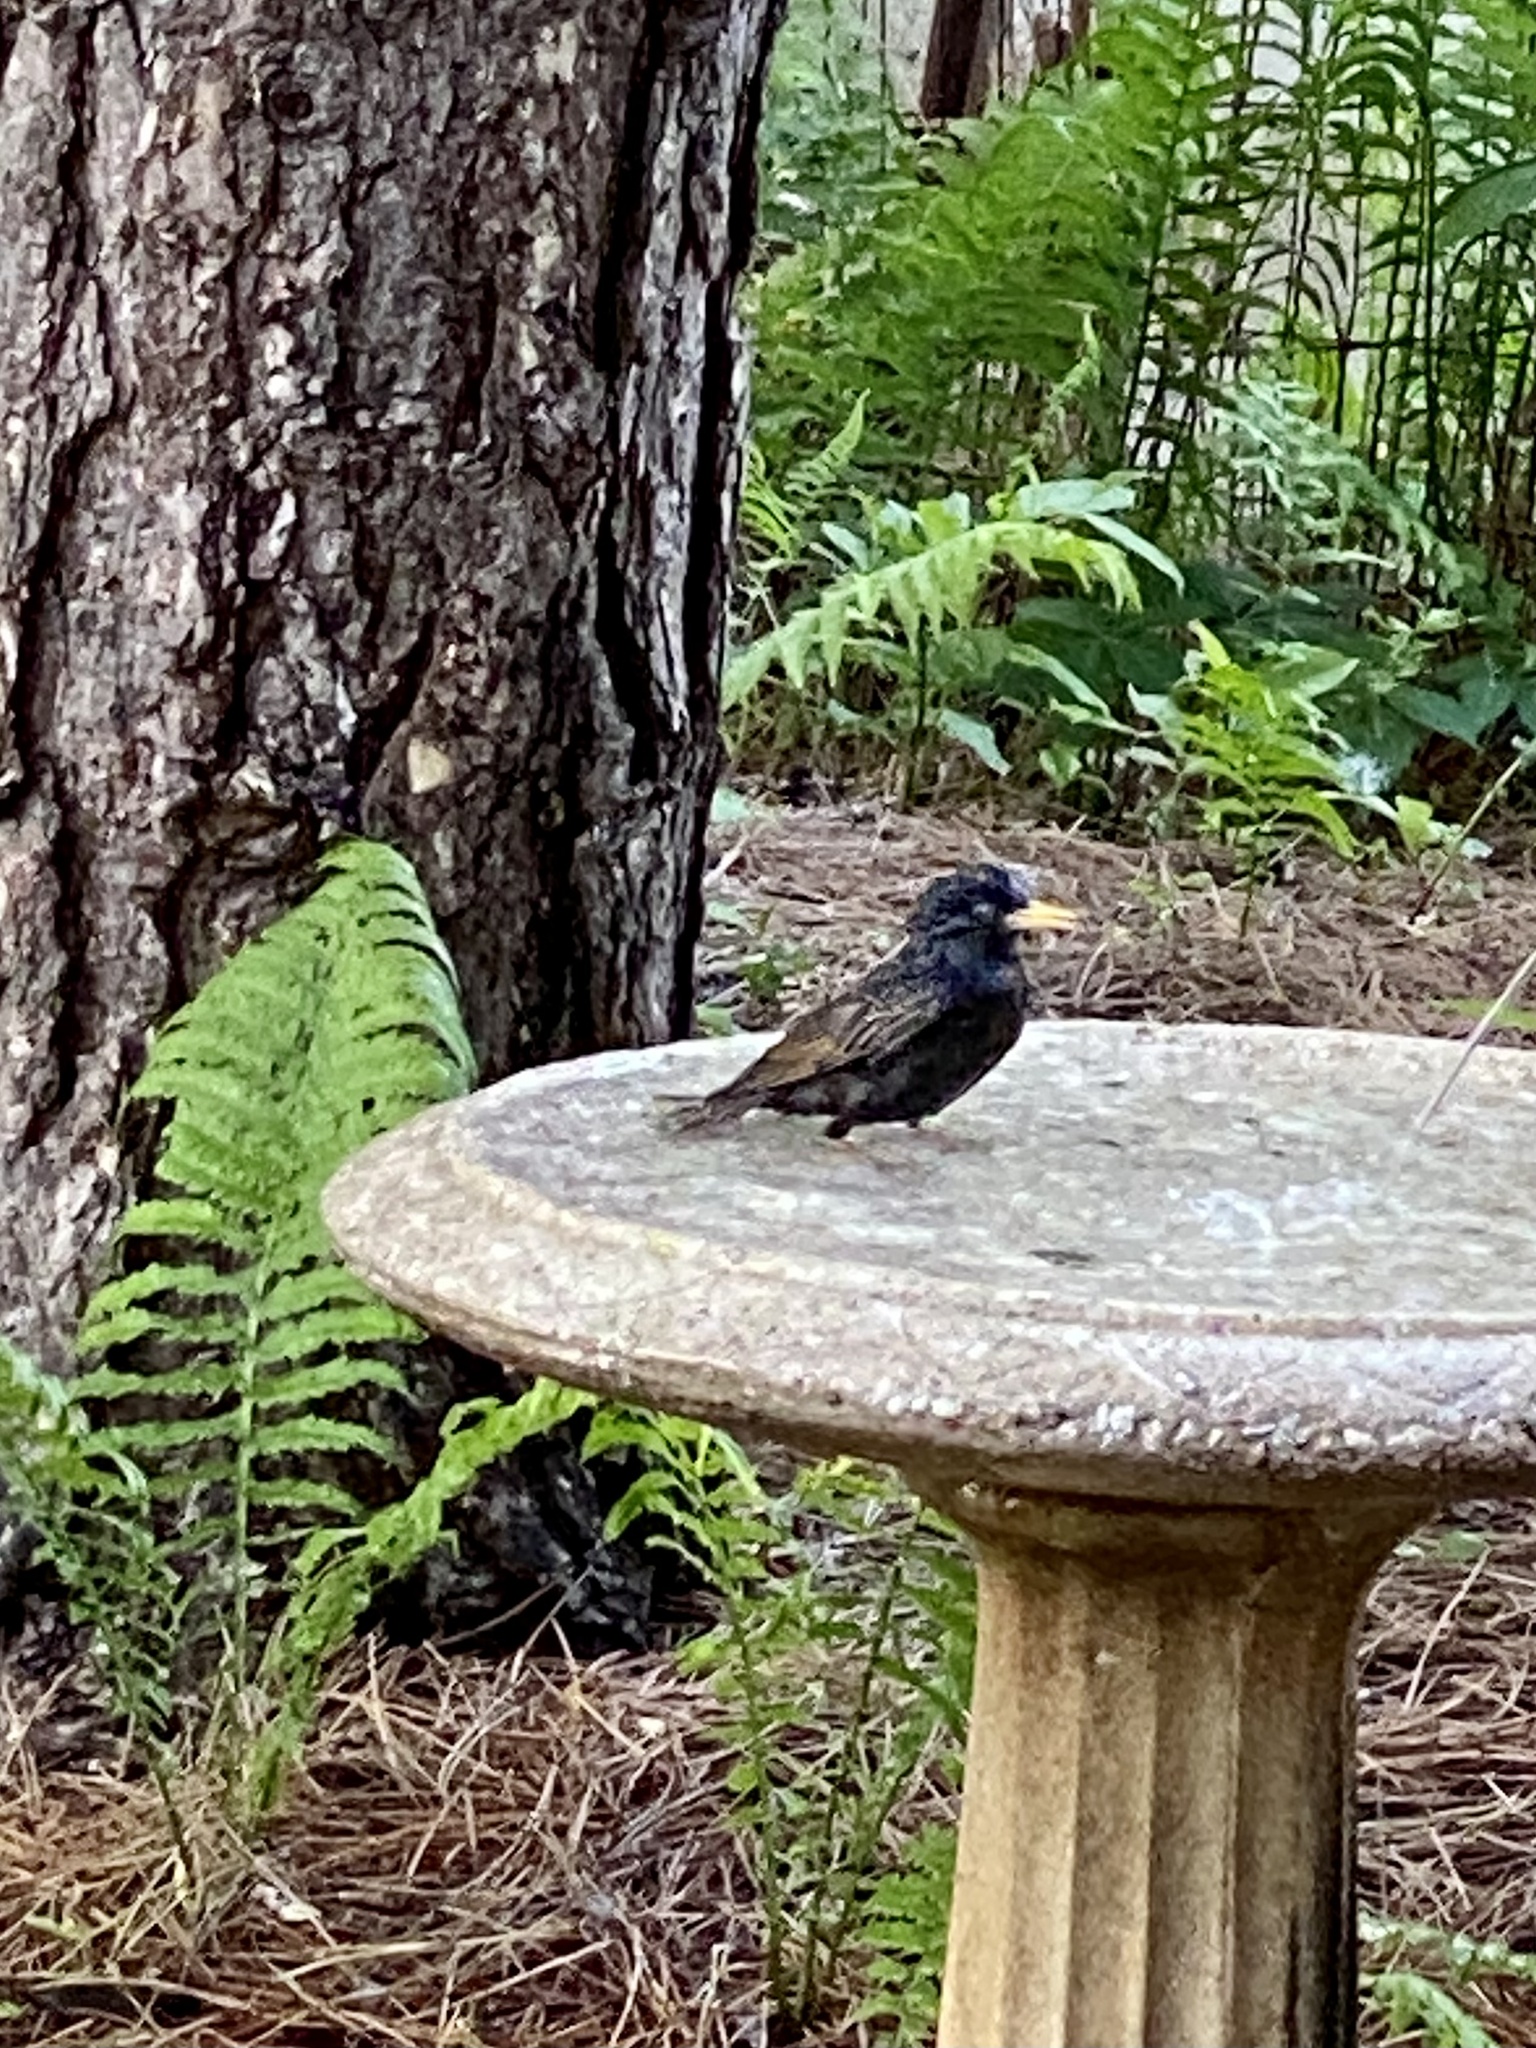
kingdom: Animalia
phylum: Chordata
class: Aves
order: Passeriformes
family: Sturnidae
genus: Sturnus
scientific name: Sturnus vulgaris
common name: Common starling
